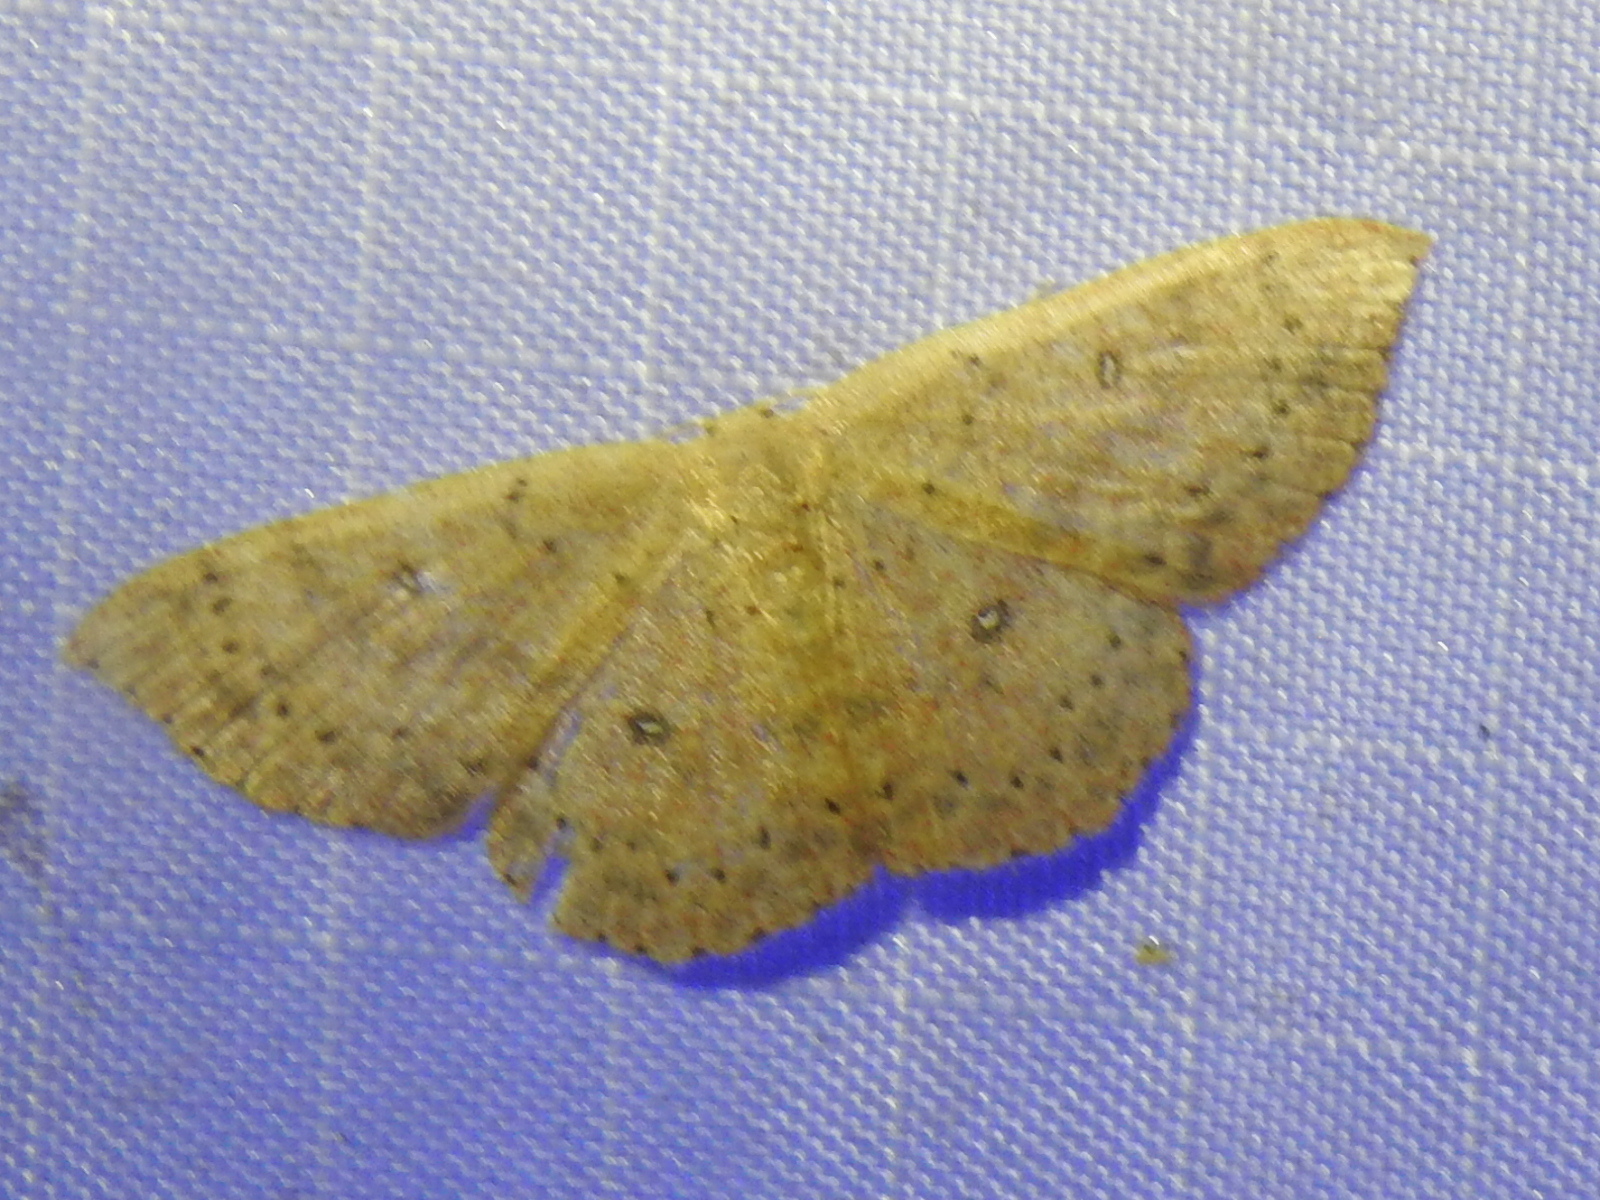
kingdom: Animalia
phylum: Arthropoda
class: Insecta
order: Lepidoptera
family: Geometridae
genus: Cyclophora
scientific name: Cyclophora packardi
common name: Packard's wave
